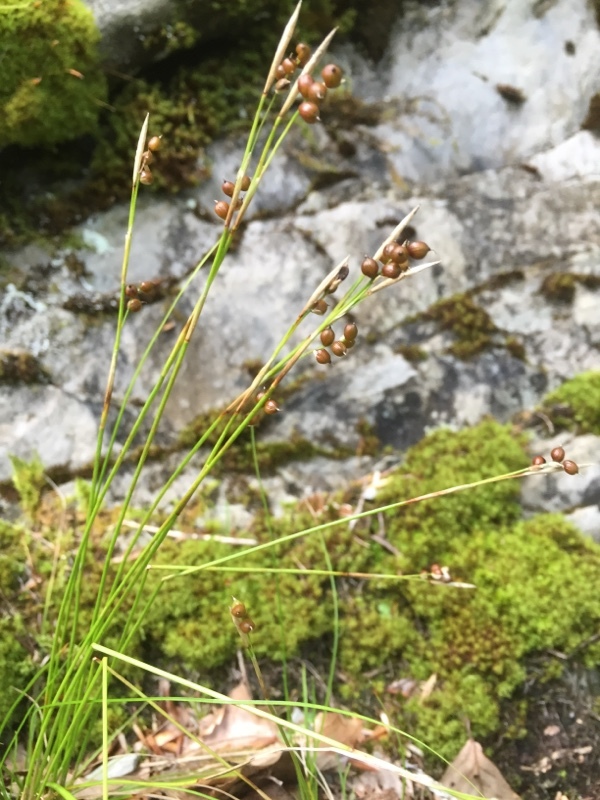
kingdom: Plantae
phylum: Tracheophyta
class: Liliopsida
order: Poales
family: Cyperaceae
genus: Carex
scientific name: Carex alba
